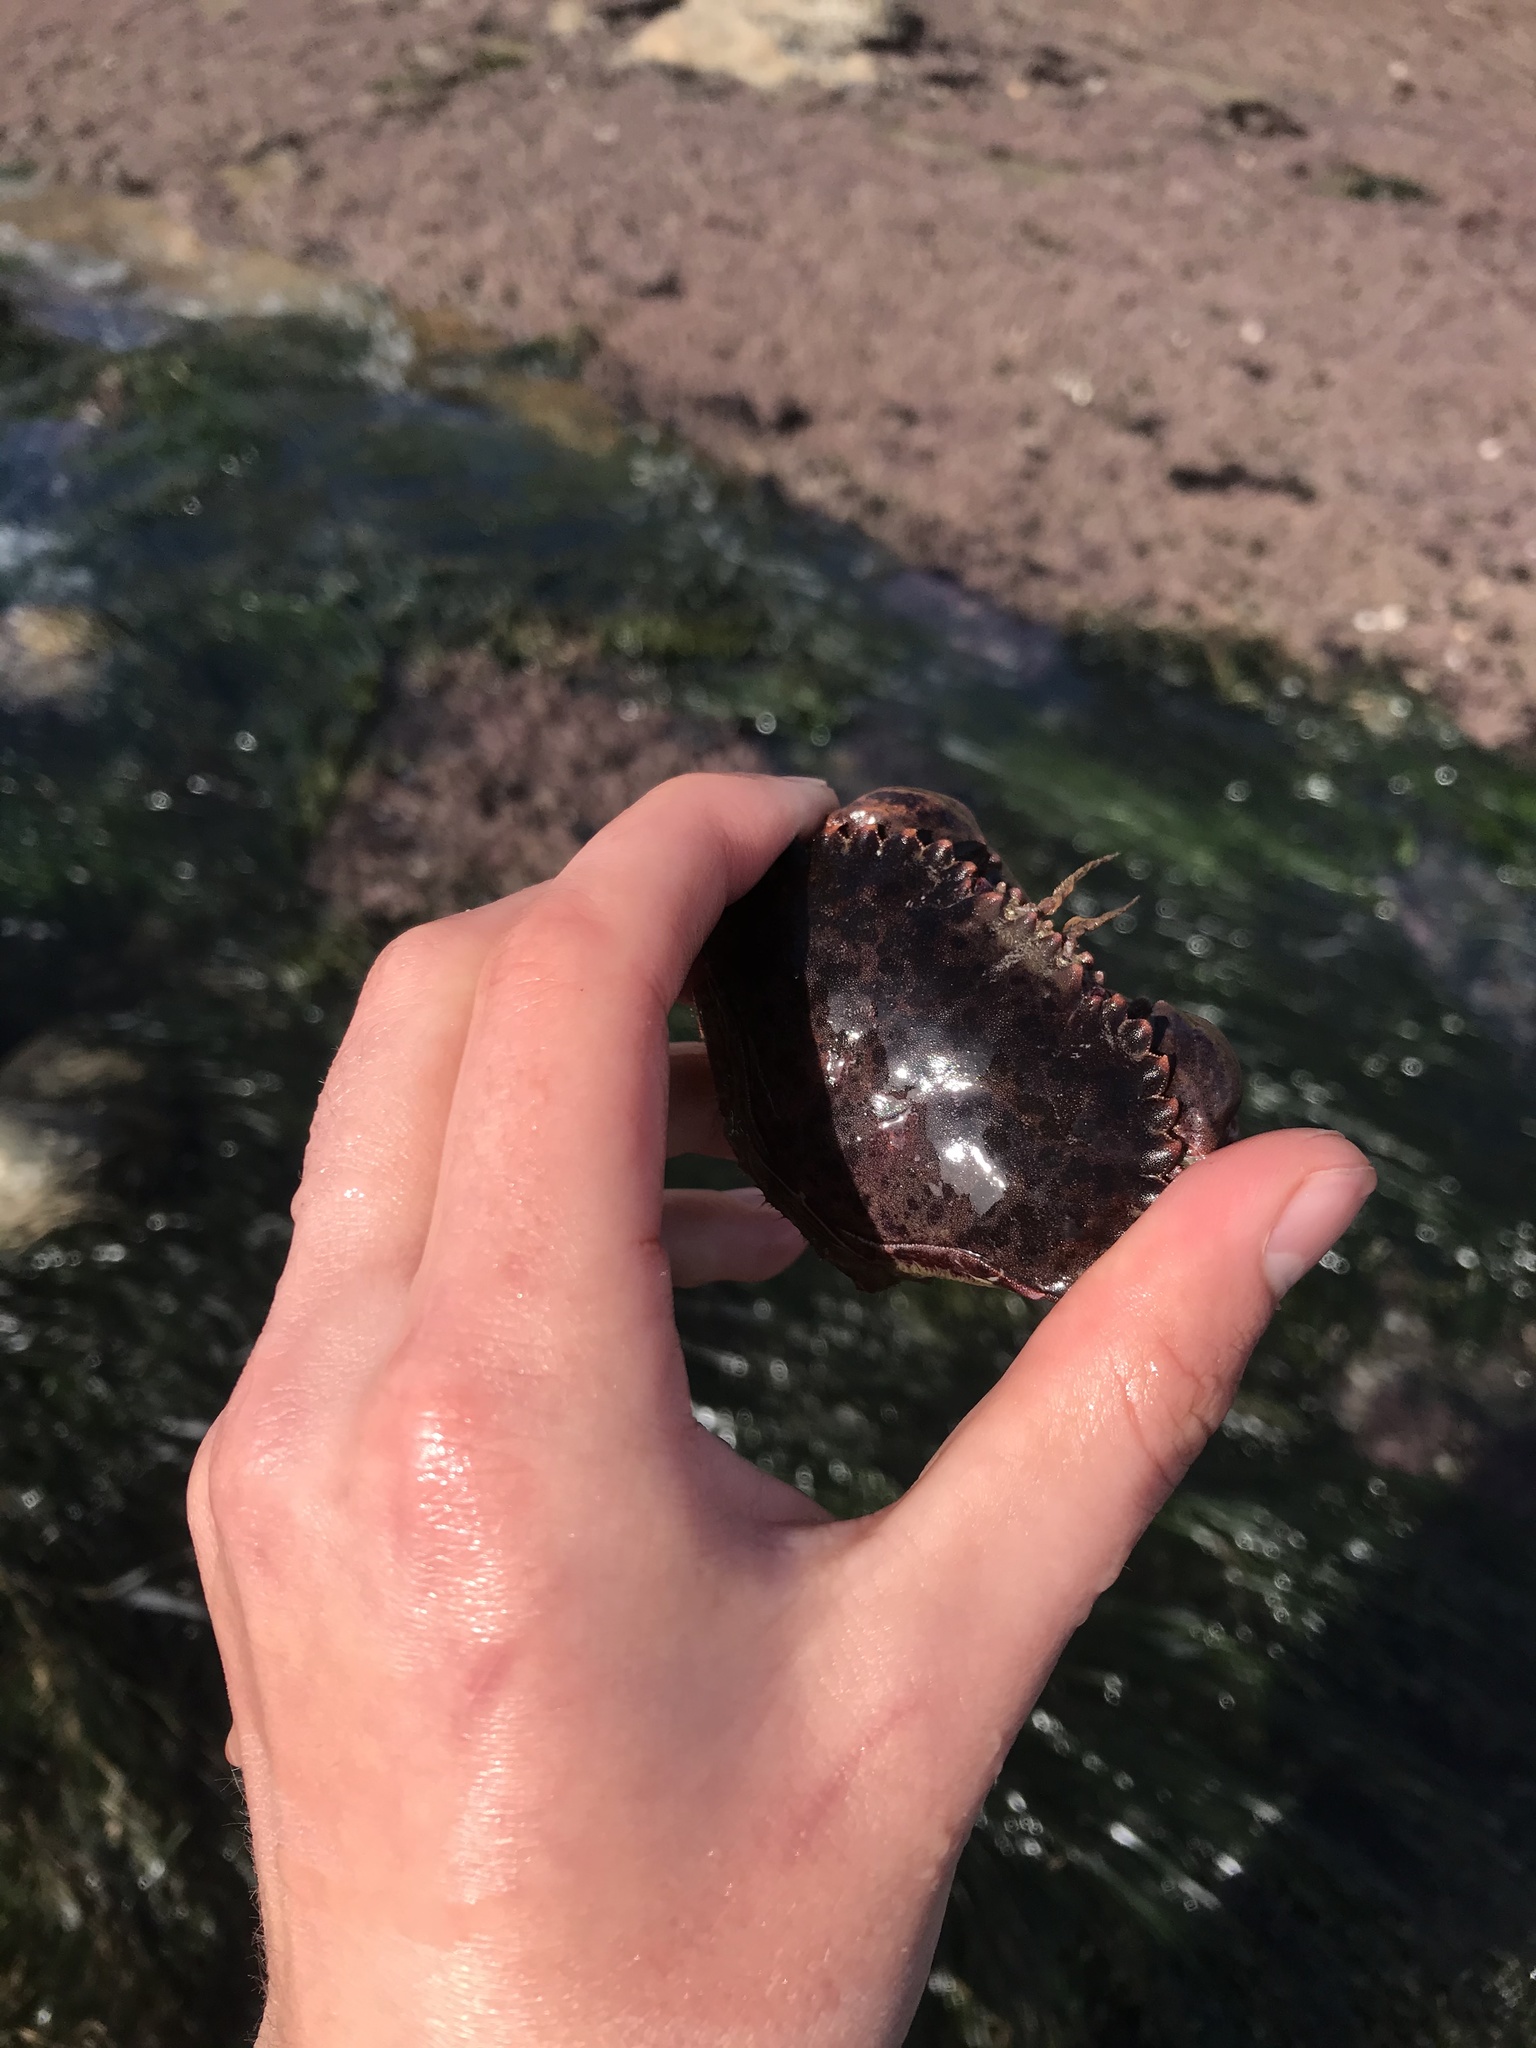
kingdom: Animalia
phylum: Arthropoda
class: Malacostraca
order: Decapoda
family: Cancridae
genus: Romaleon
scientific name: Romaleon antennarium
